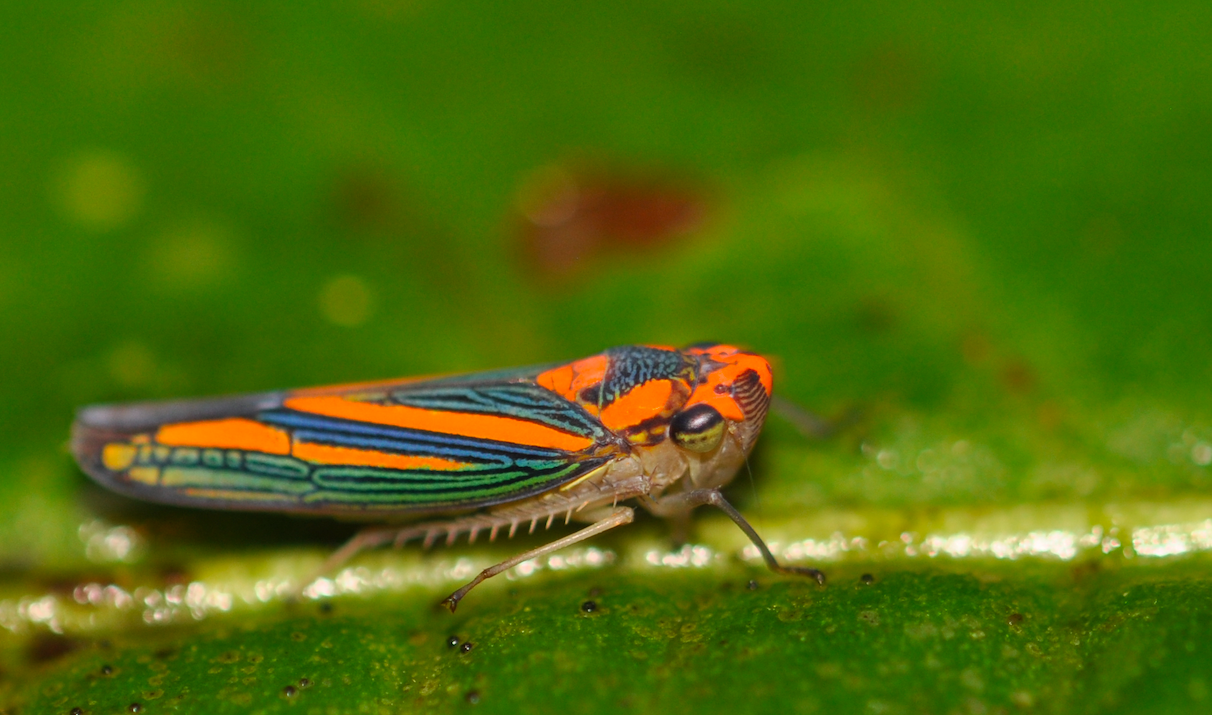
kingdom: Animalia
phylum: Arthropoda
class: Insecta
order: Hemiptera
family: Cicadellidae
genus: Demadana
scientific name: Demadana resonabilis
